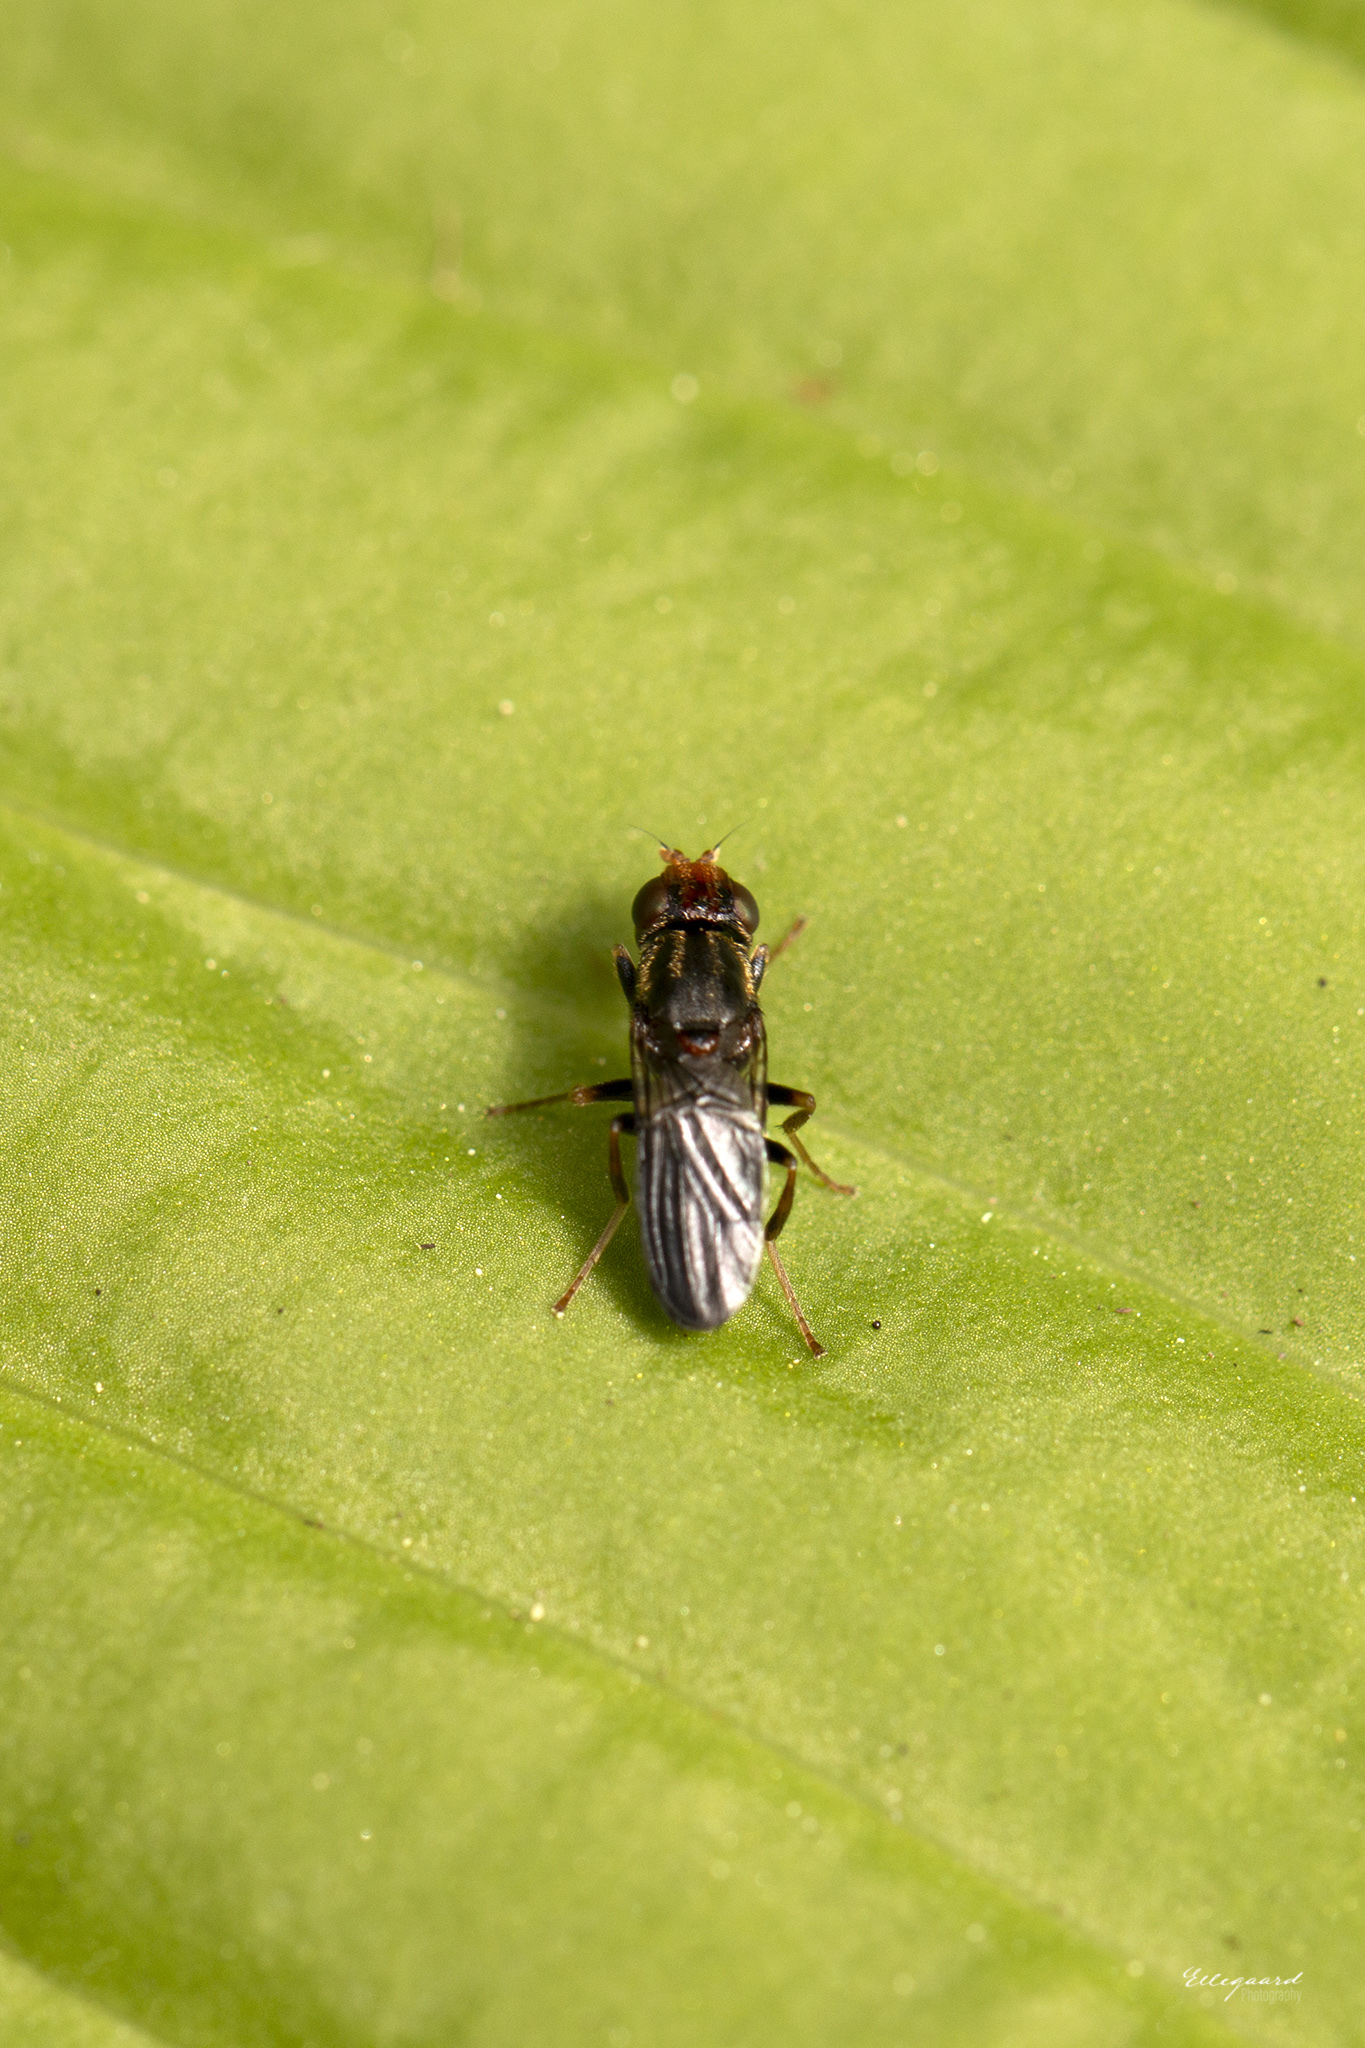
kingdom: Animalia
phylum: Arthropoda
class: Insecta
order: Diptera
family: Psilidae
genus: Chyliza
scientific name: Chyliza leguminicola
